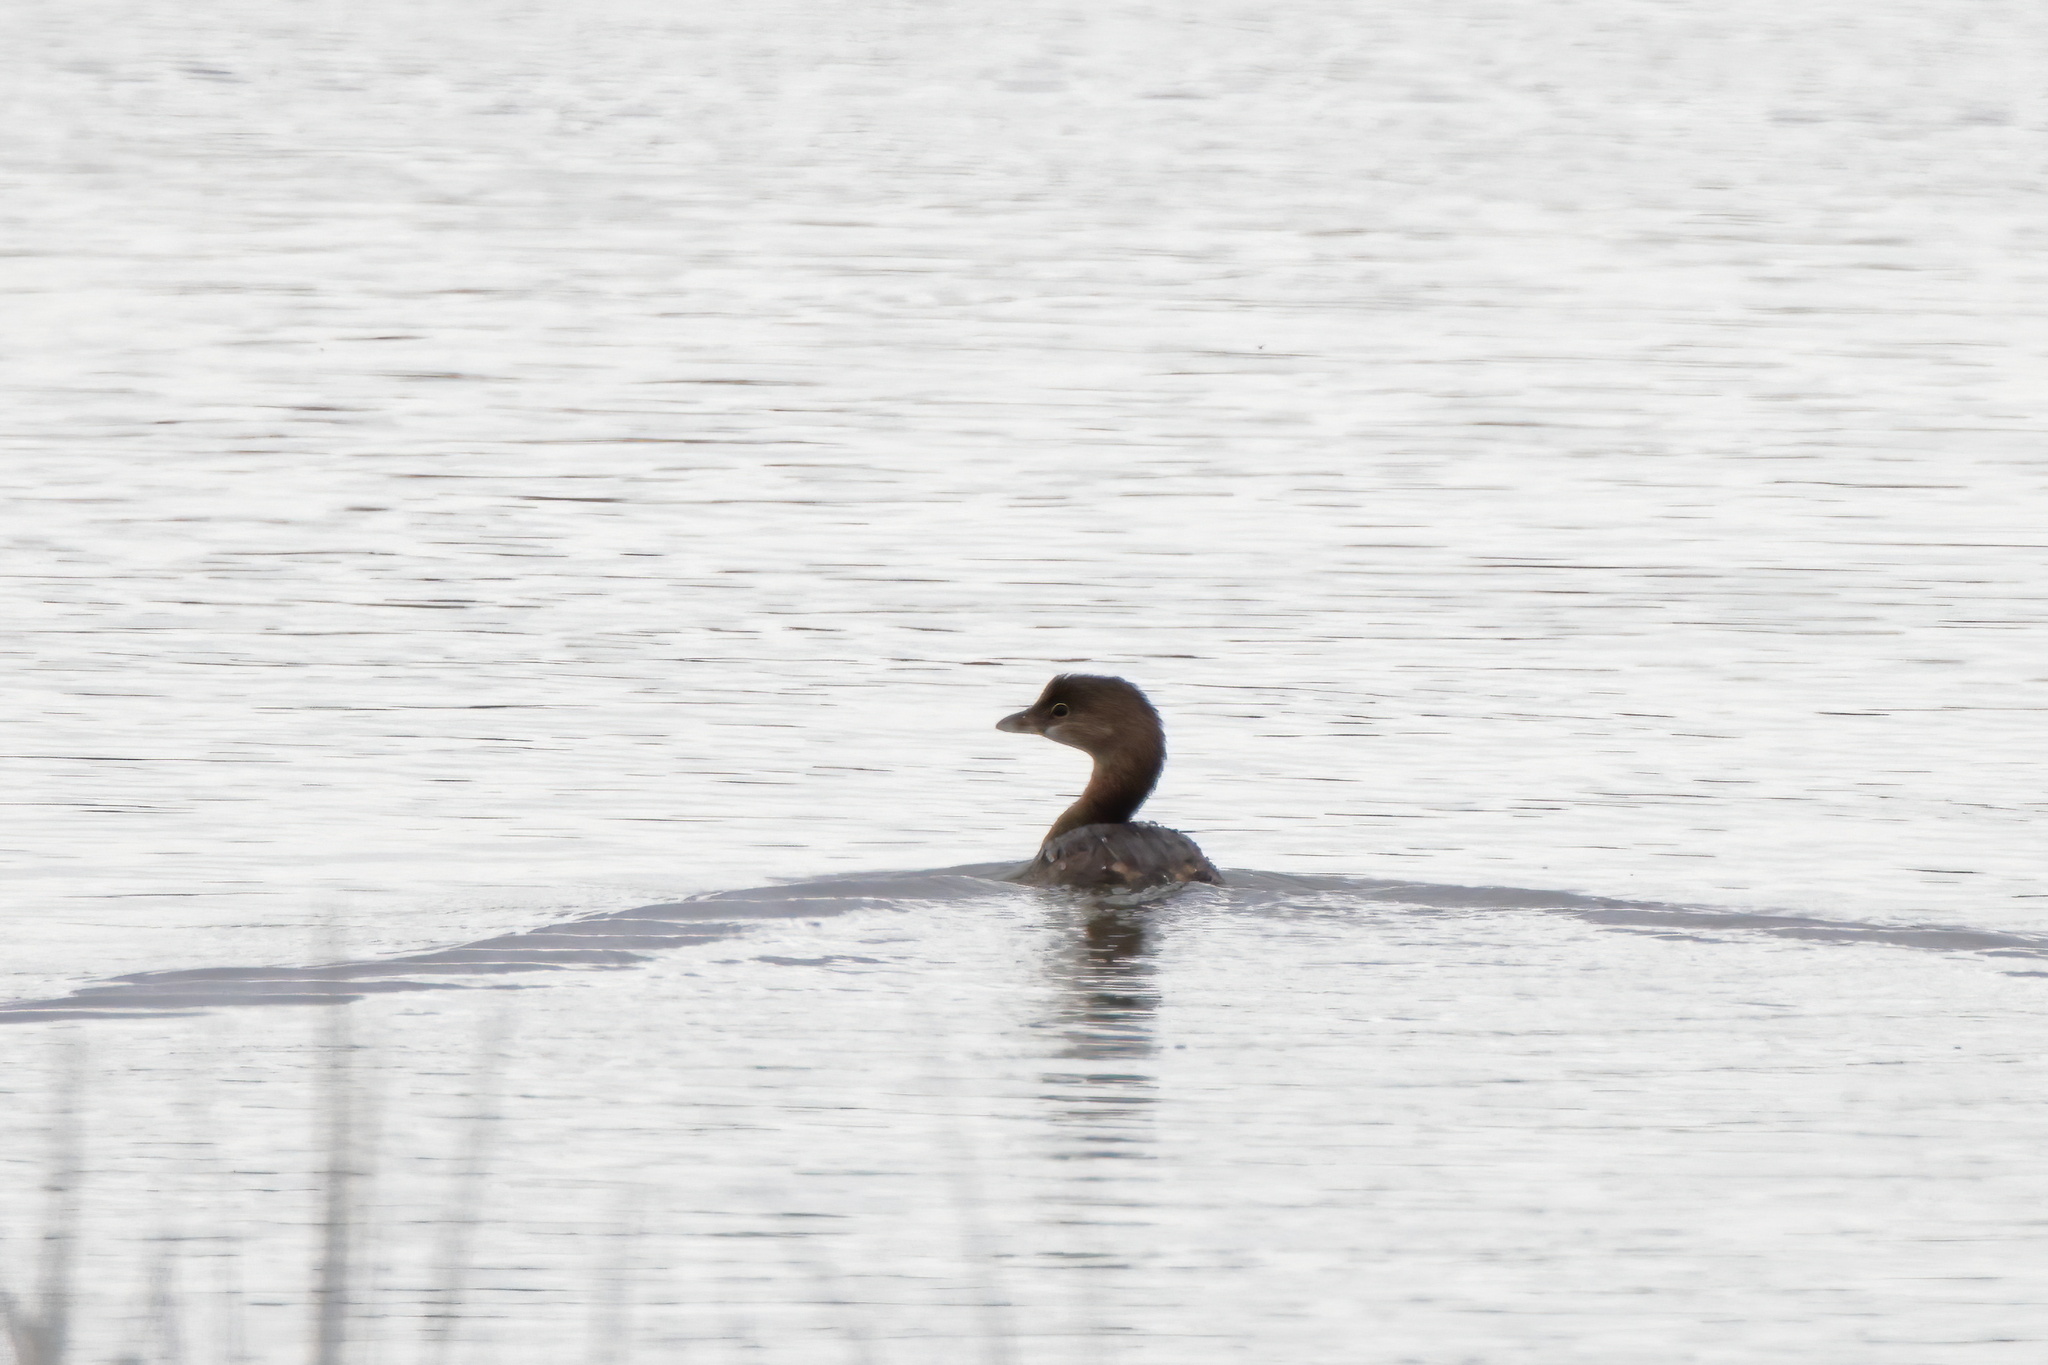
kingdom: Animalia
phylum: Chordata
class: Aves
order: Podicipediformes
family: Podicipedidae
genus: Podilymbus
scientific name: Podilymbus podiceps
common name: Pied-billed grebe
